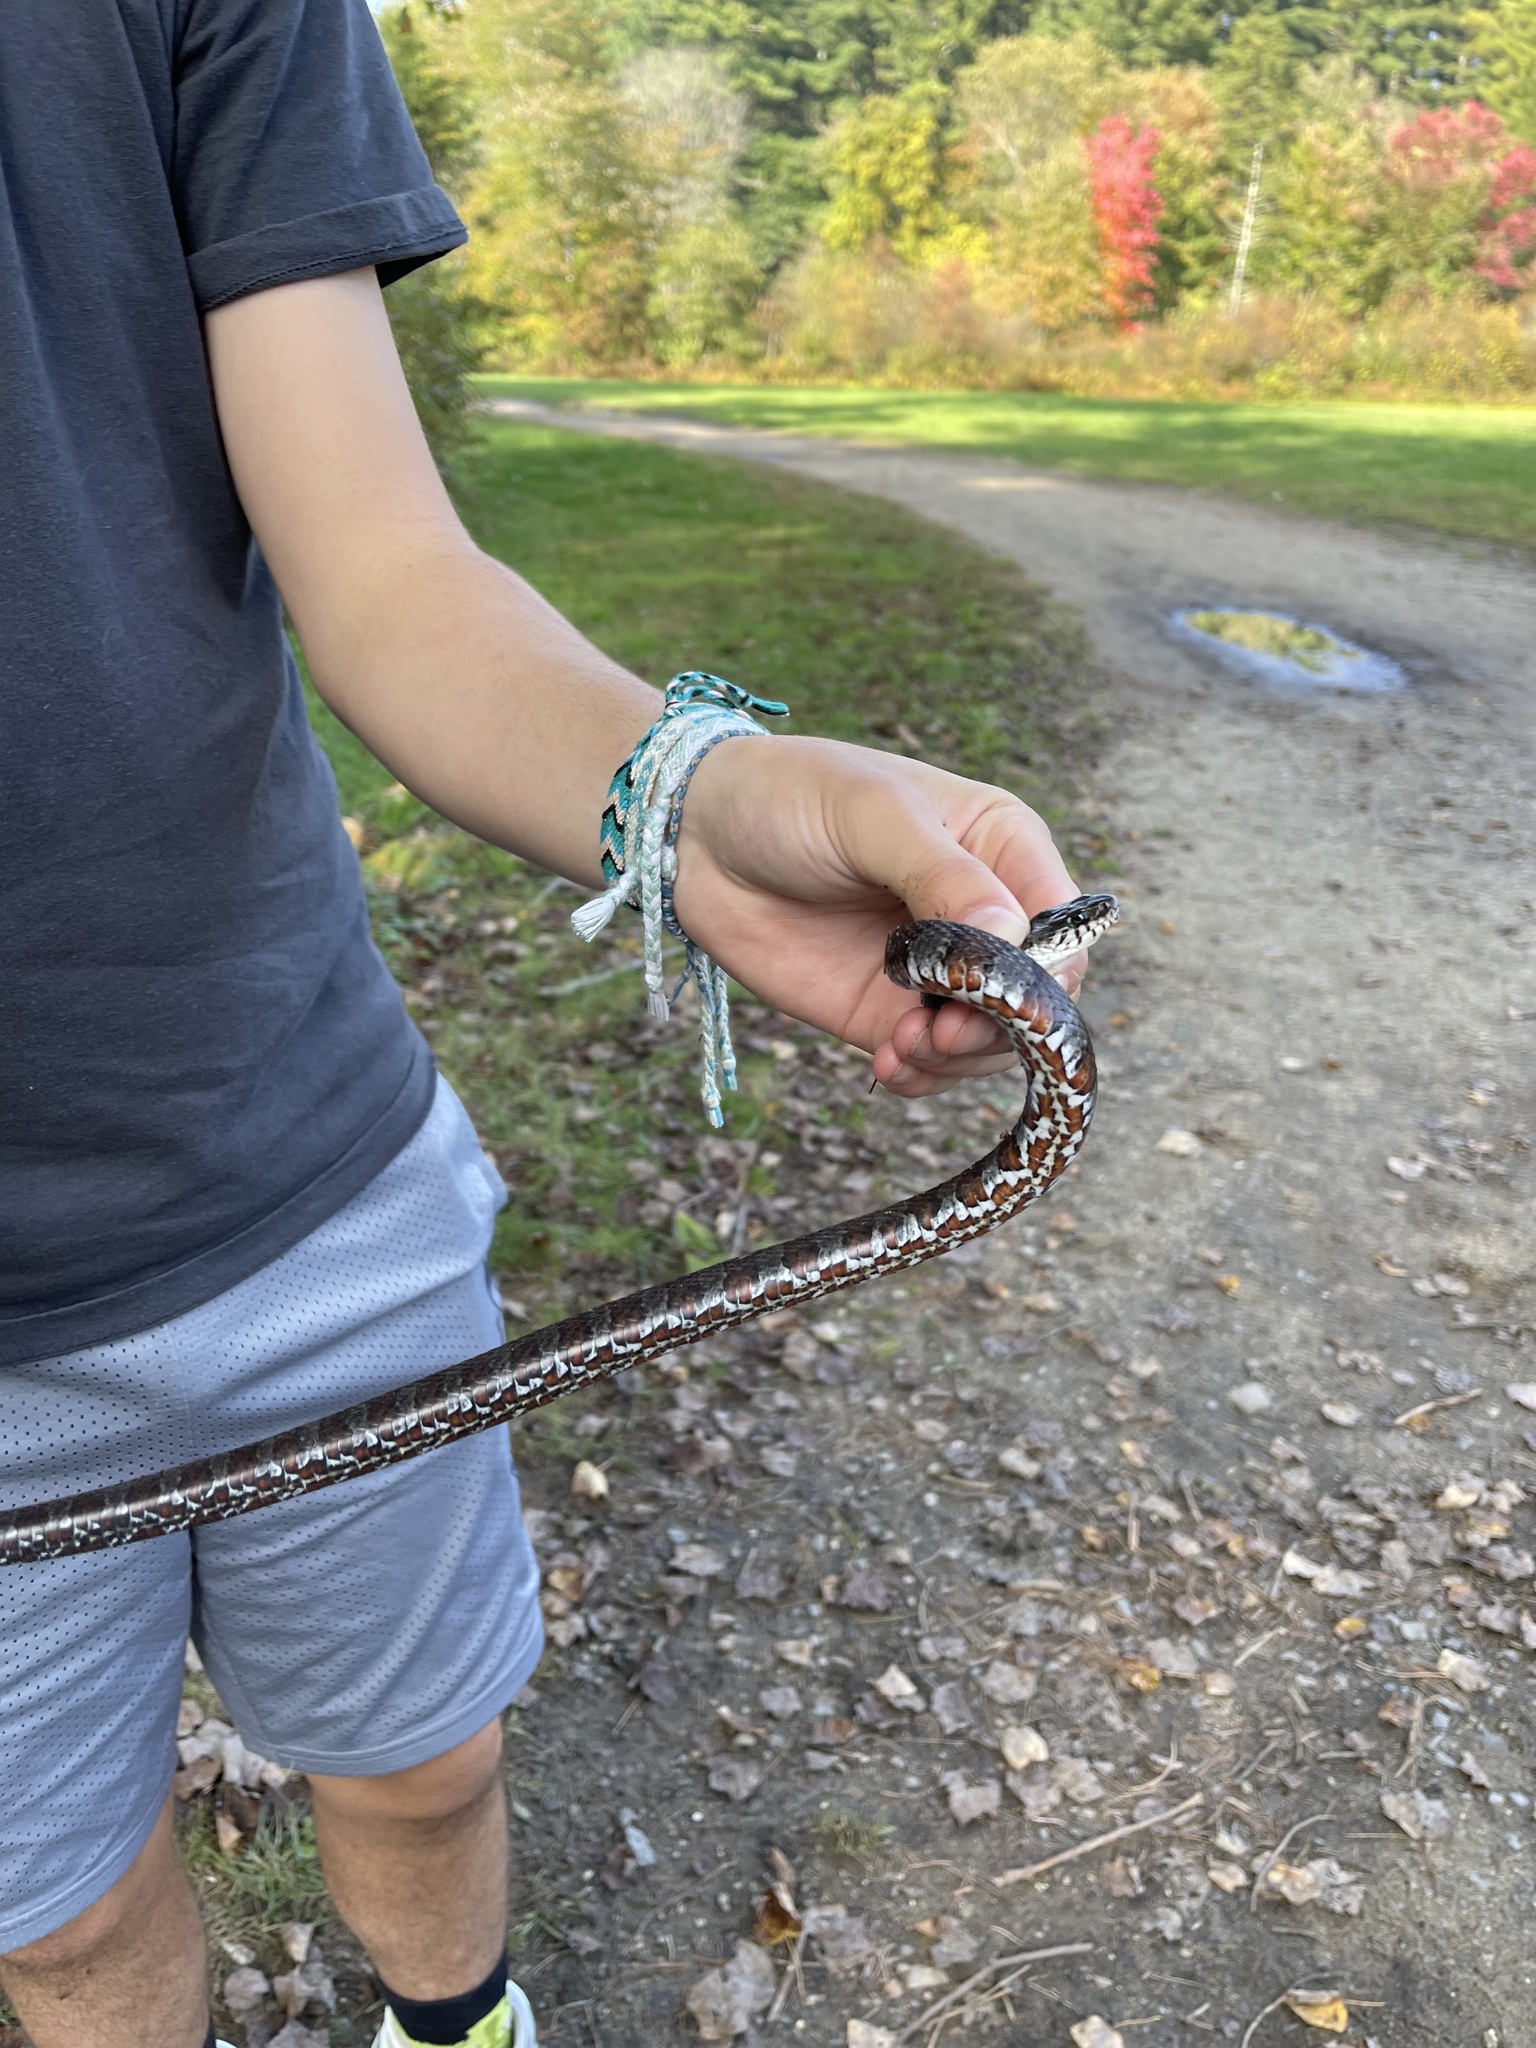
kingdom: Animalia
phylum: Chordata
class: Squamata
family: Colubridae
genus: Nerodia
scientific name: Nerodia sipedon
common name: Northern water snake
